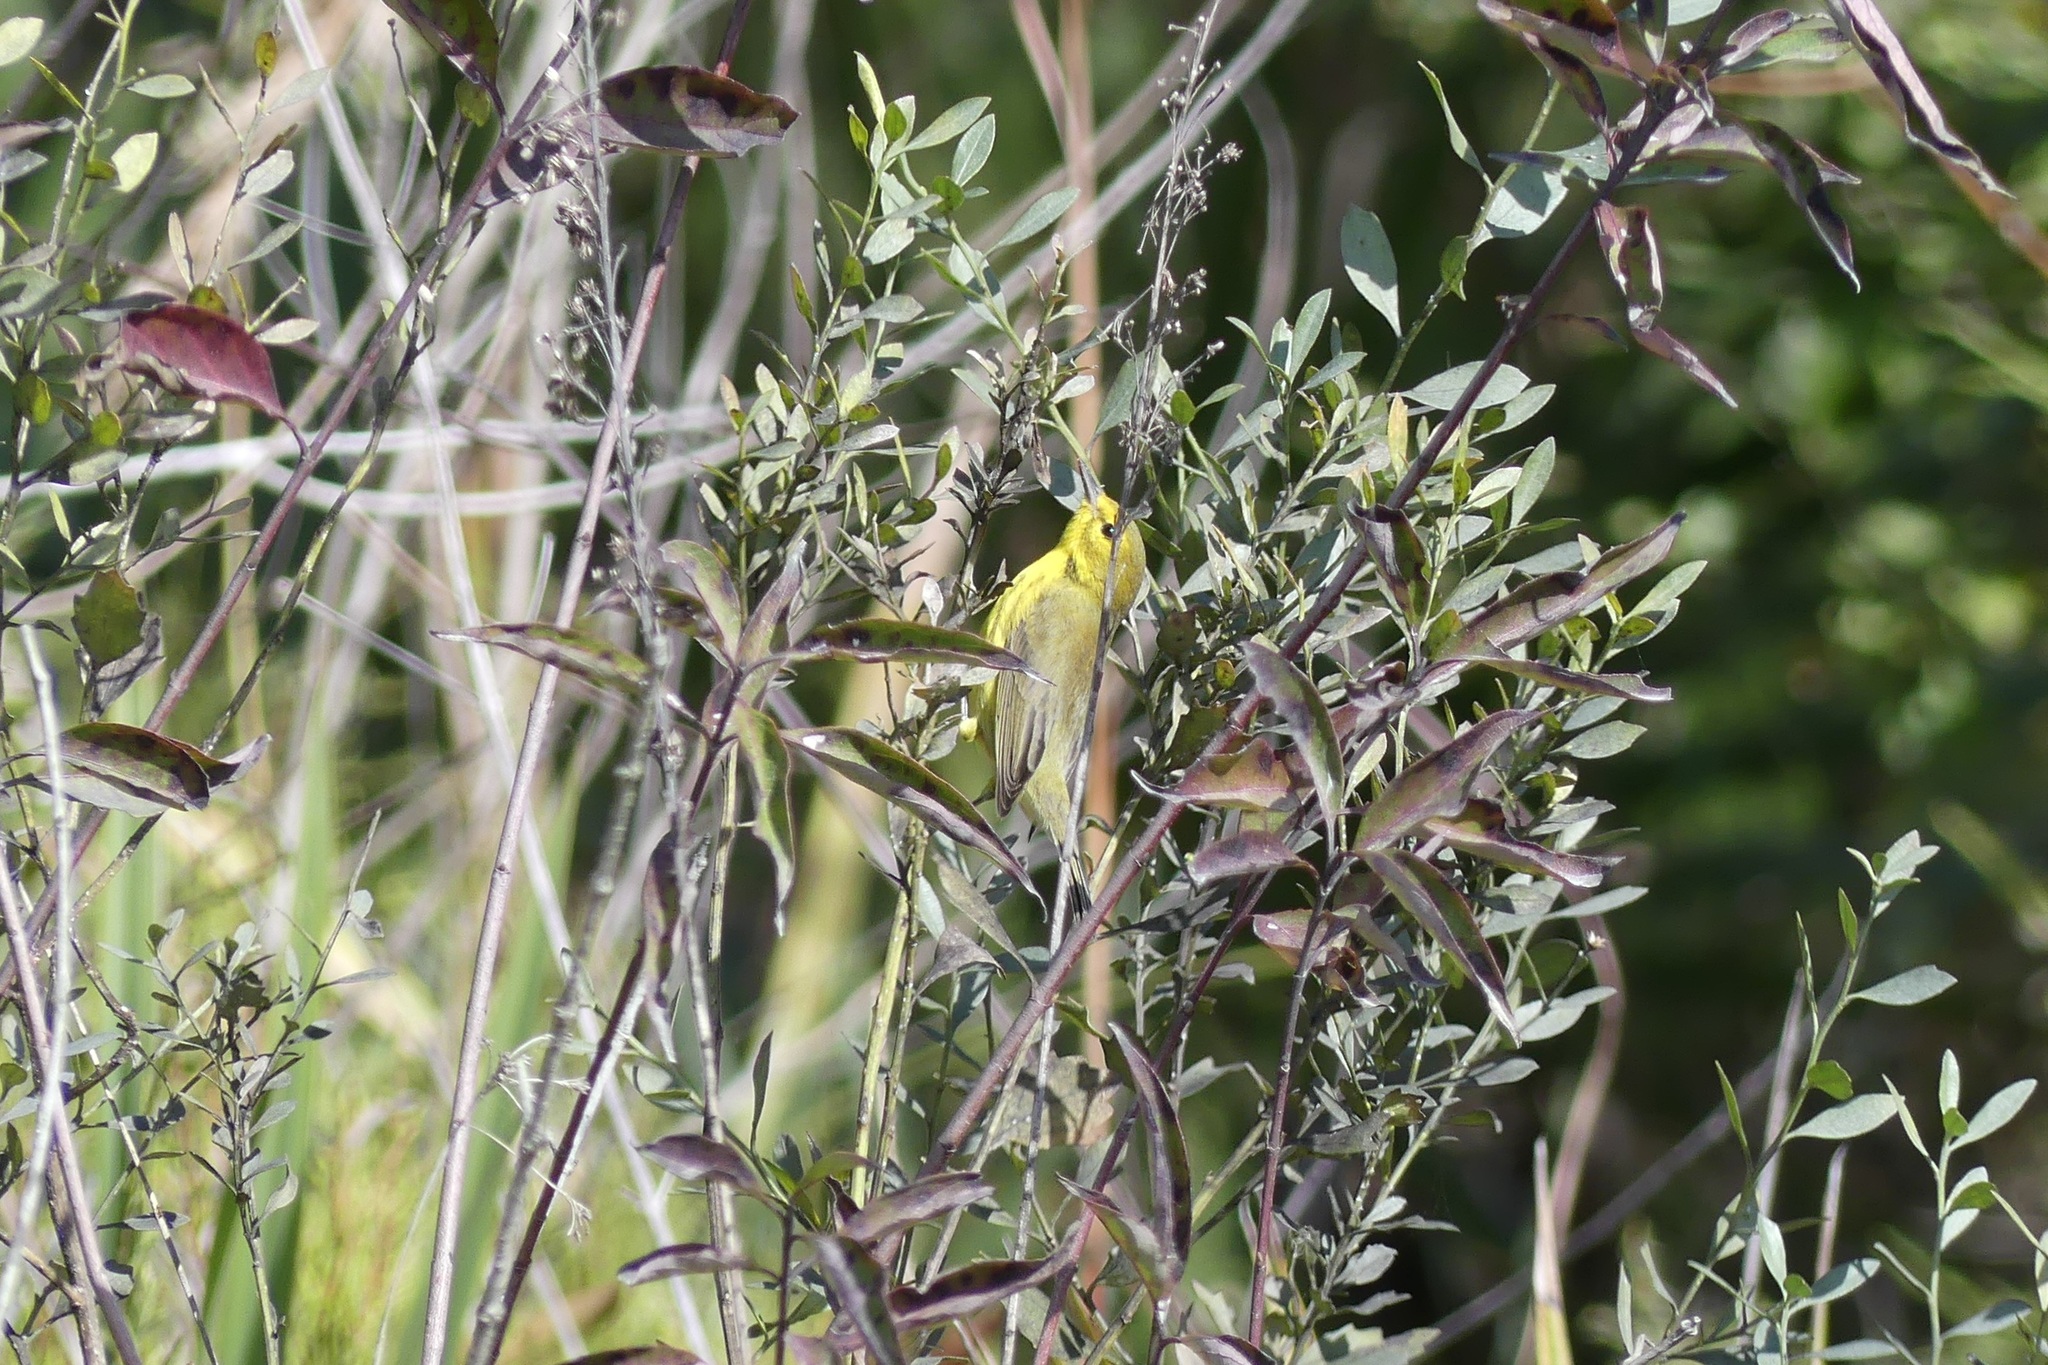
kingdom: Animalia
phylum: Chordata
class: Aves
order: Passeriformes
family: Parulidae
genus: Setophaga
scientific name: Setophaga discolor
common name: Prairie warbler
